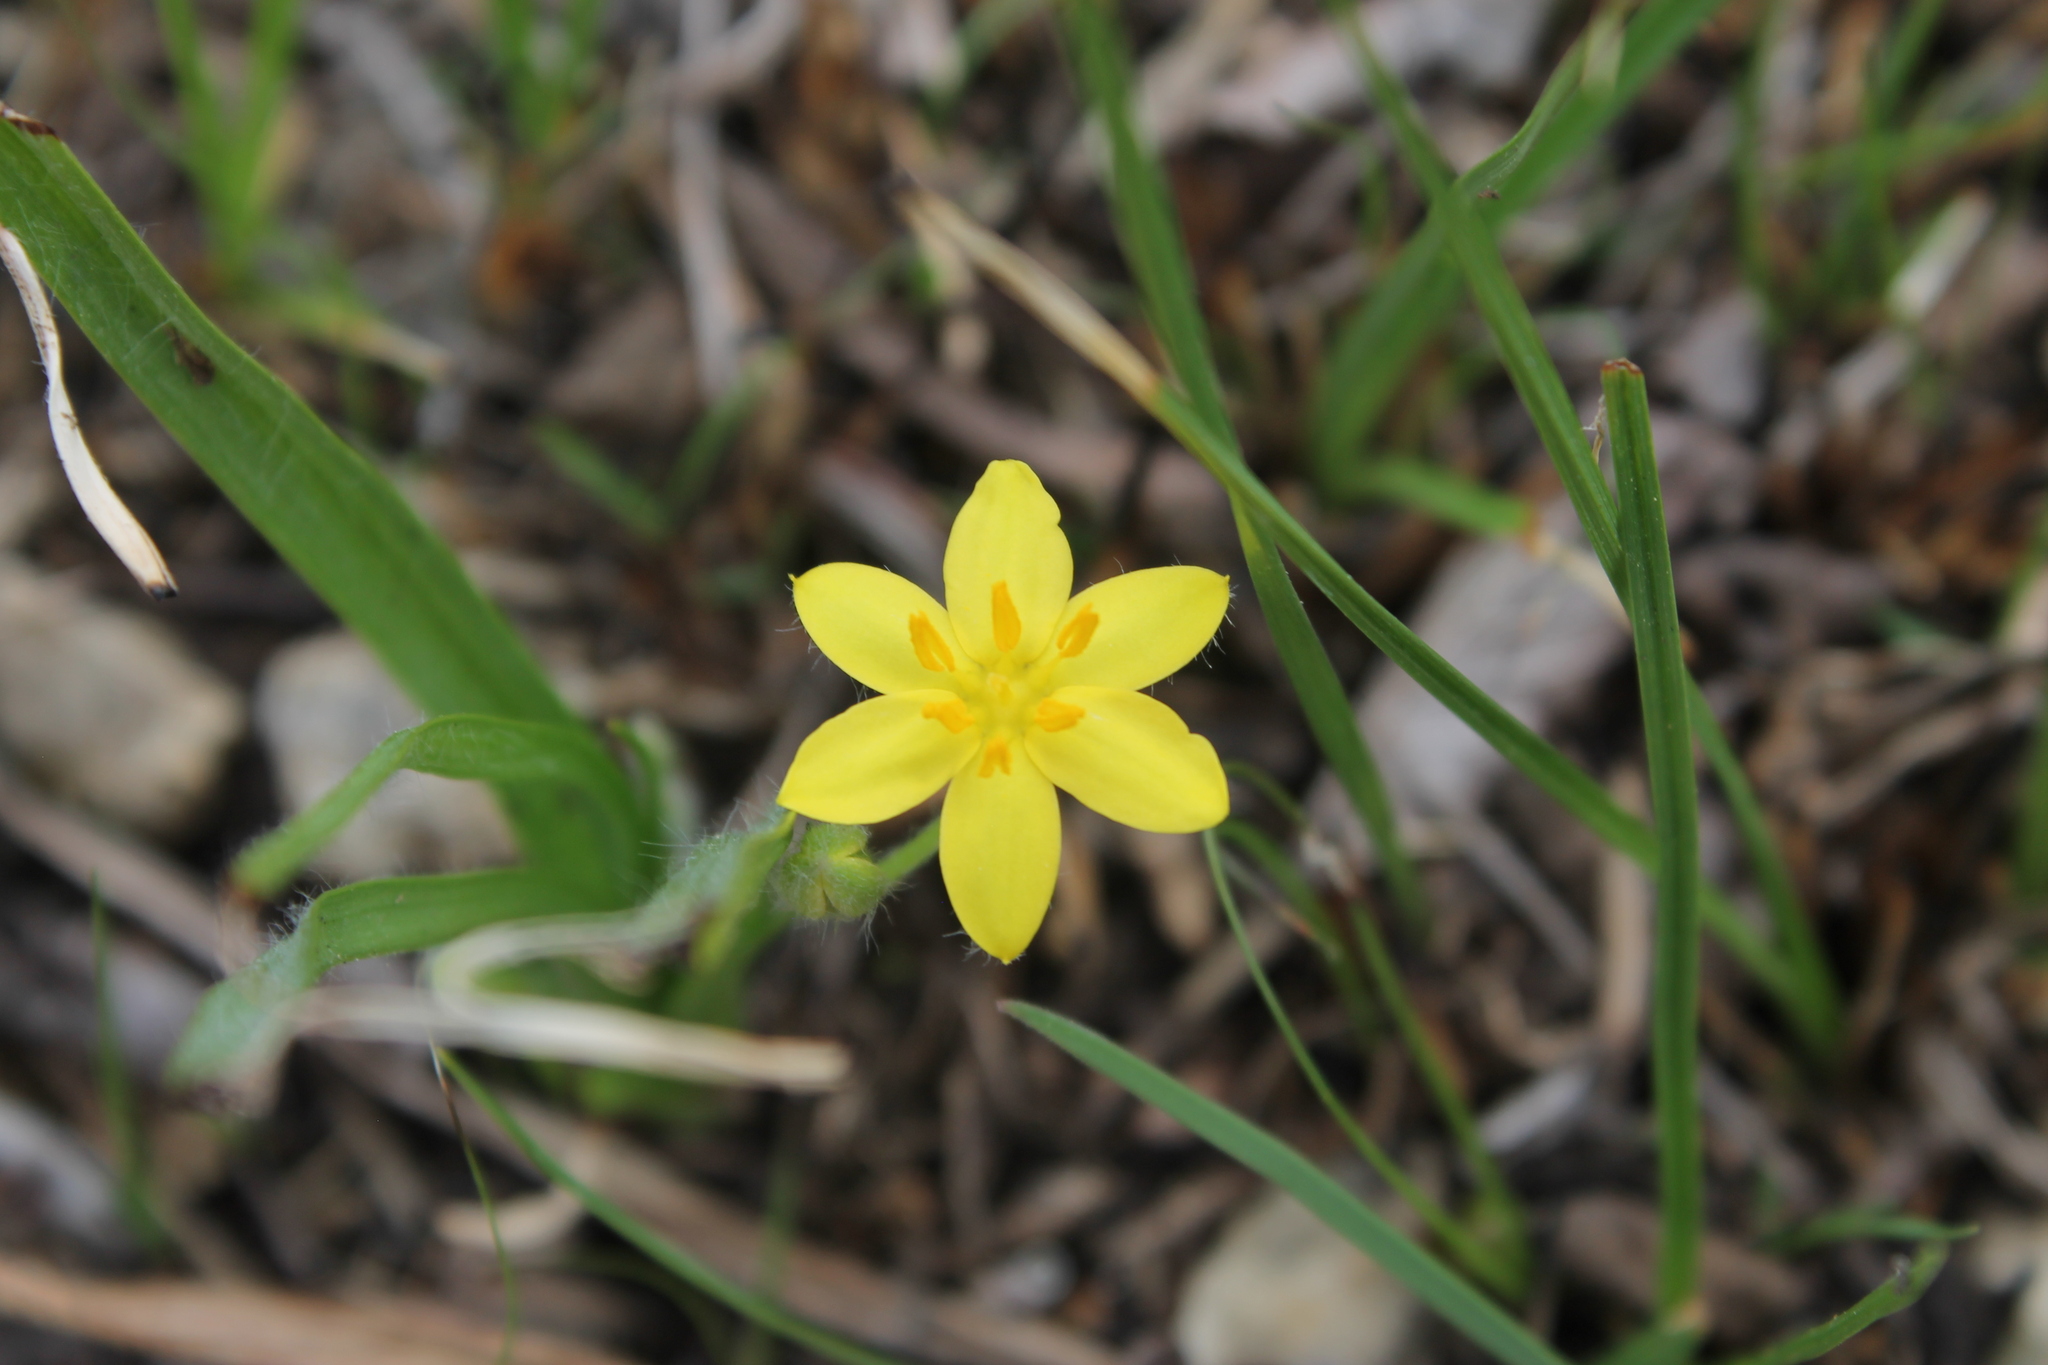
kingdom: Plantae
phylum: Tracheophyta
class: Liliopsida
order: Asparagales
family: Hypoxidaceae
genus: Hypoxis
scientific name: Hypoxis hirsuta
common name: Common goldstar
